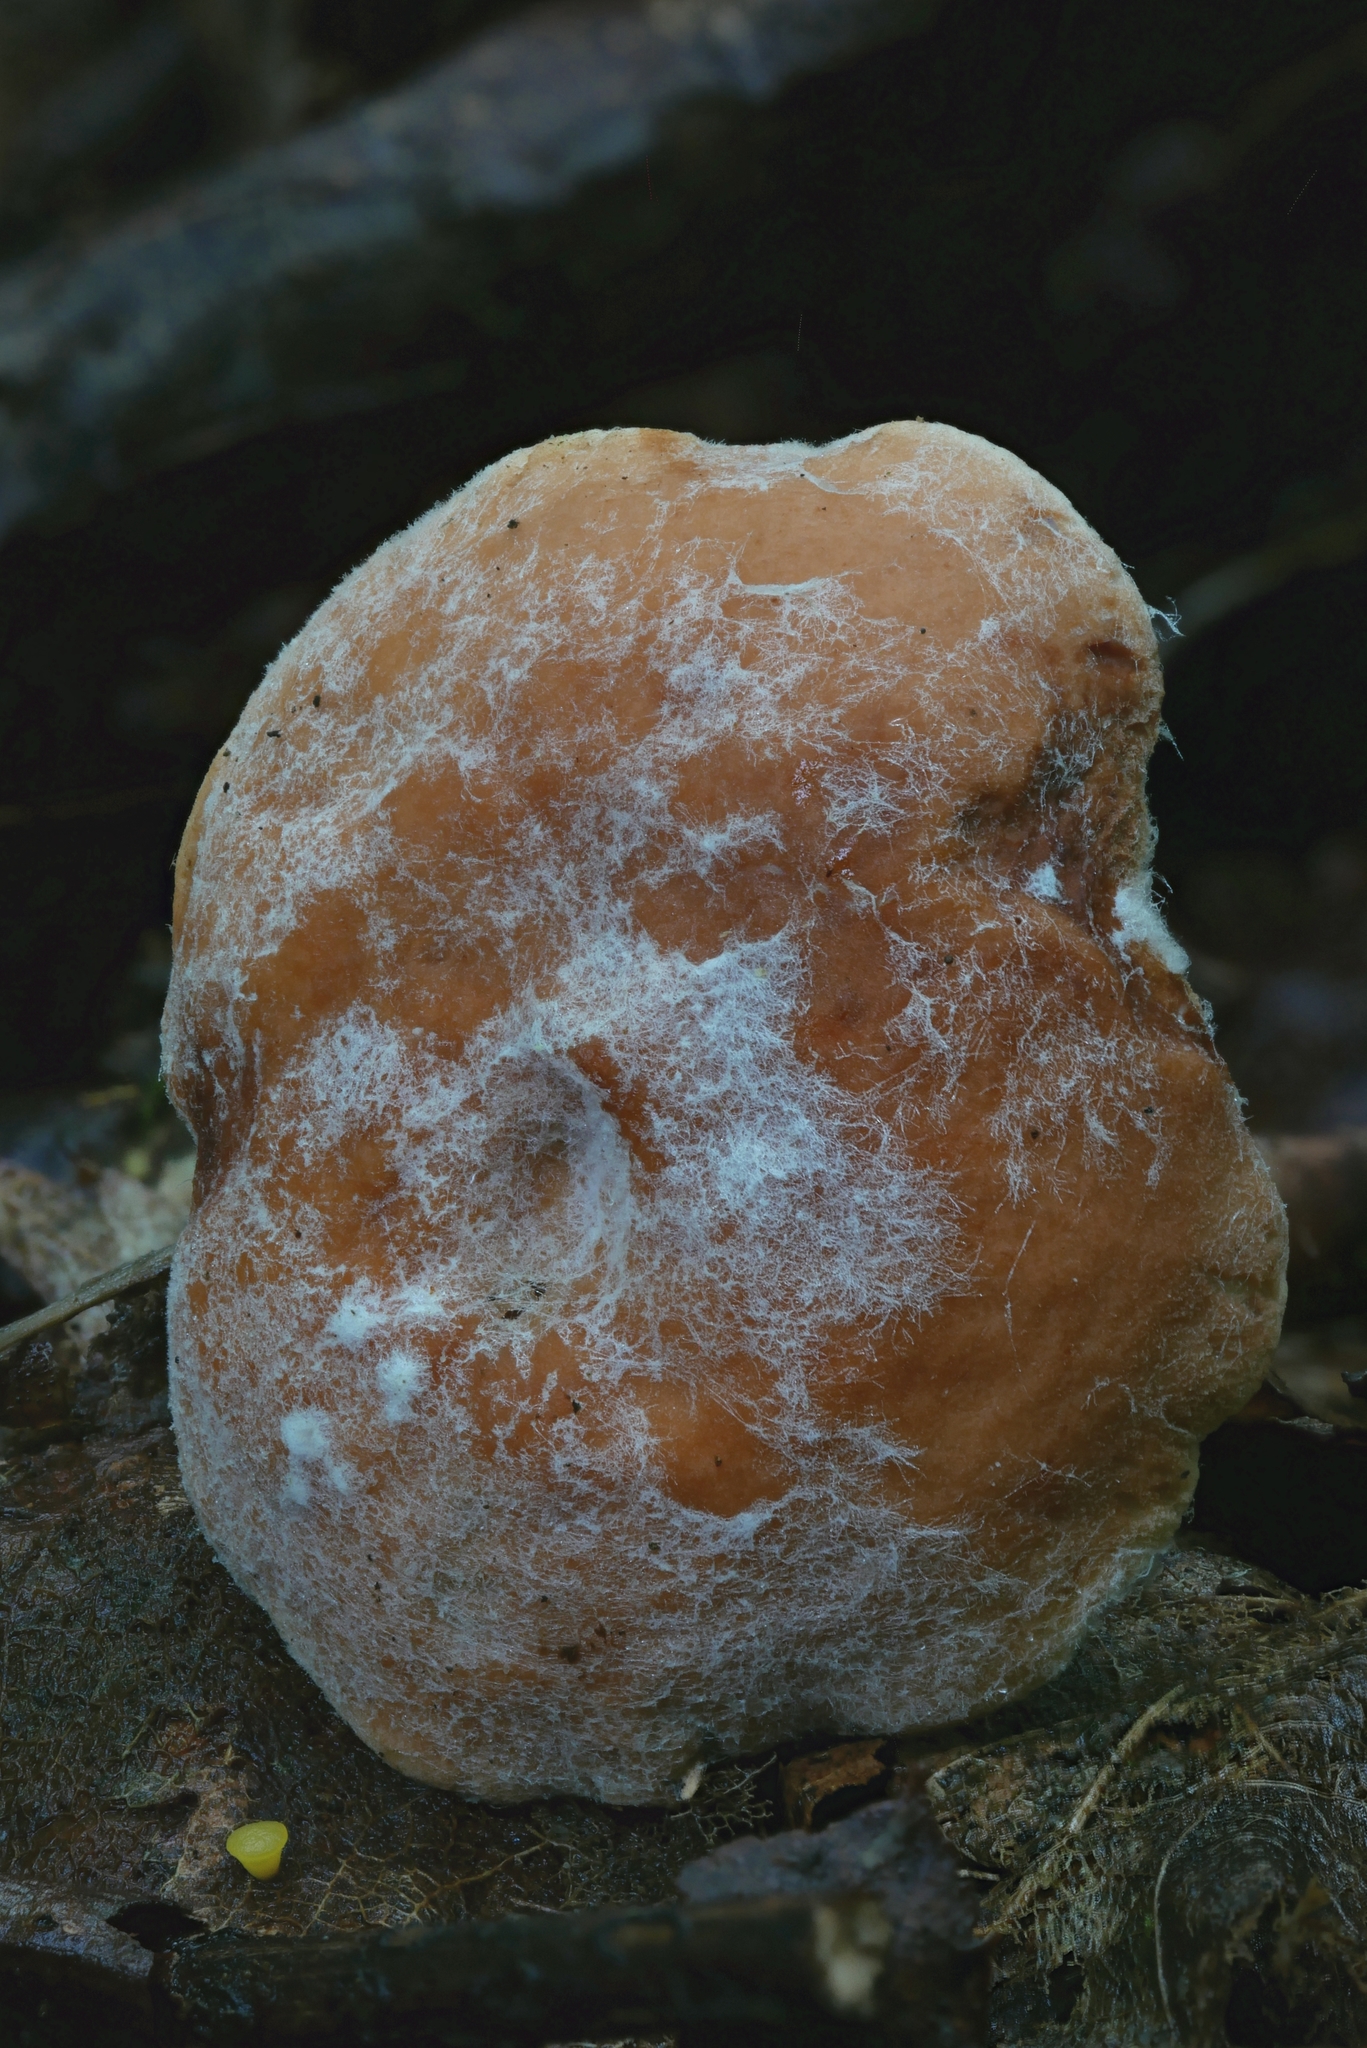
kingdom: Fungi
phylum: Ascomycota
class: Sordariomycetes
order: Hypocreales
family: Hypocreaceae
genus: Hypomyces
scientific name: Hypomyces armeniacus
